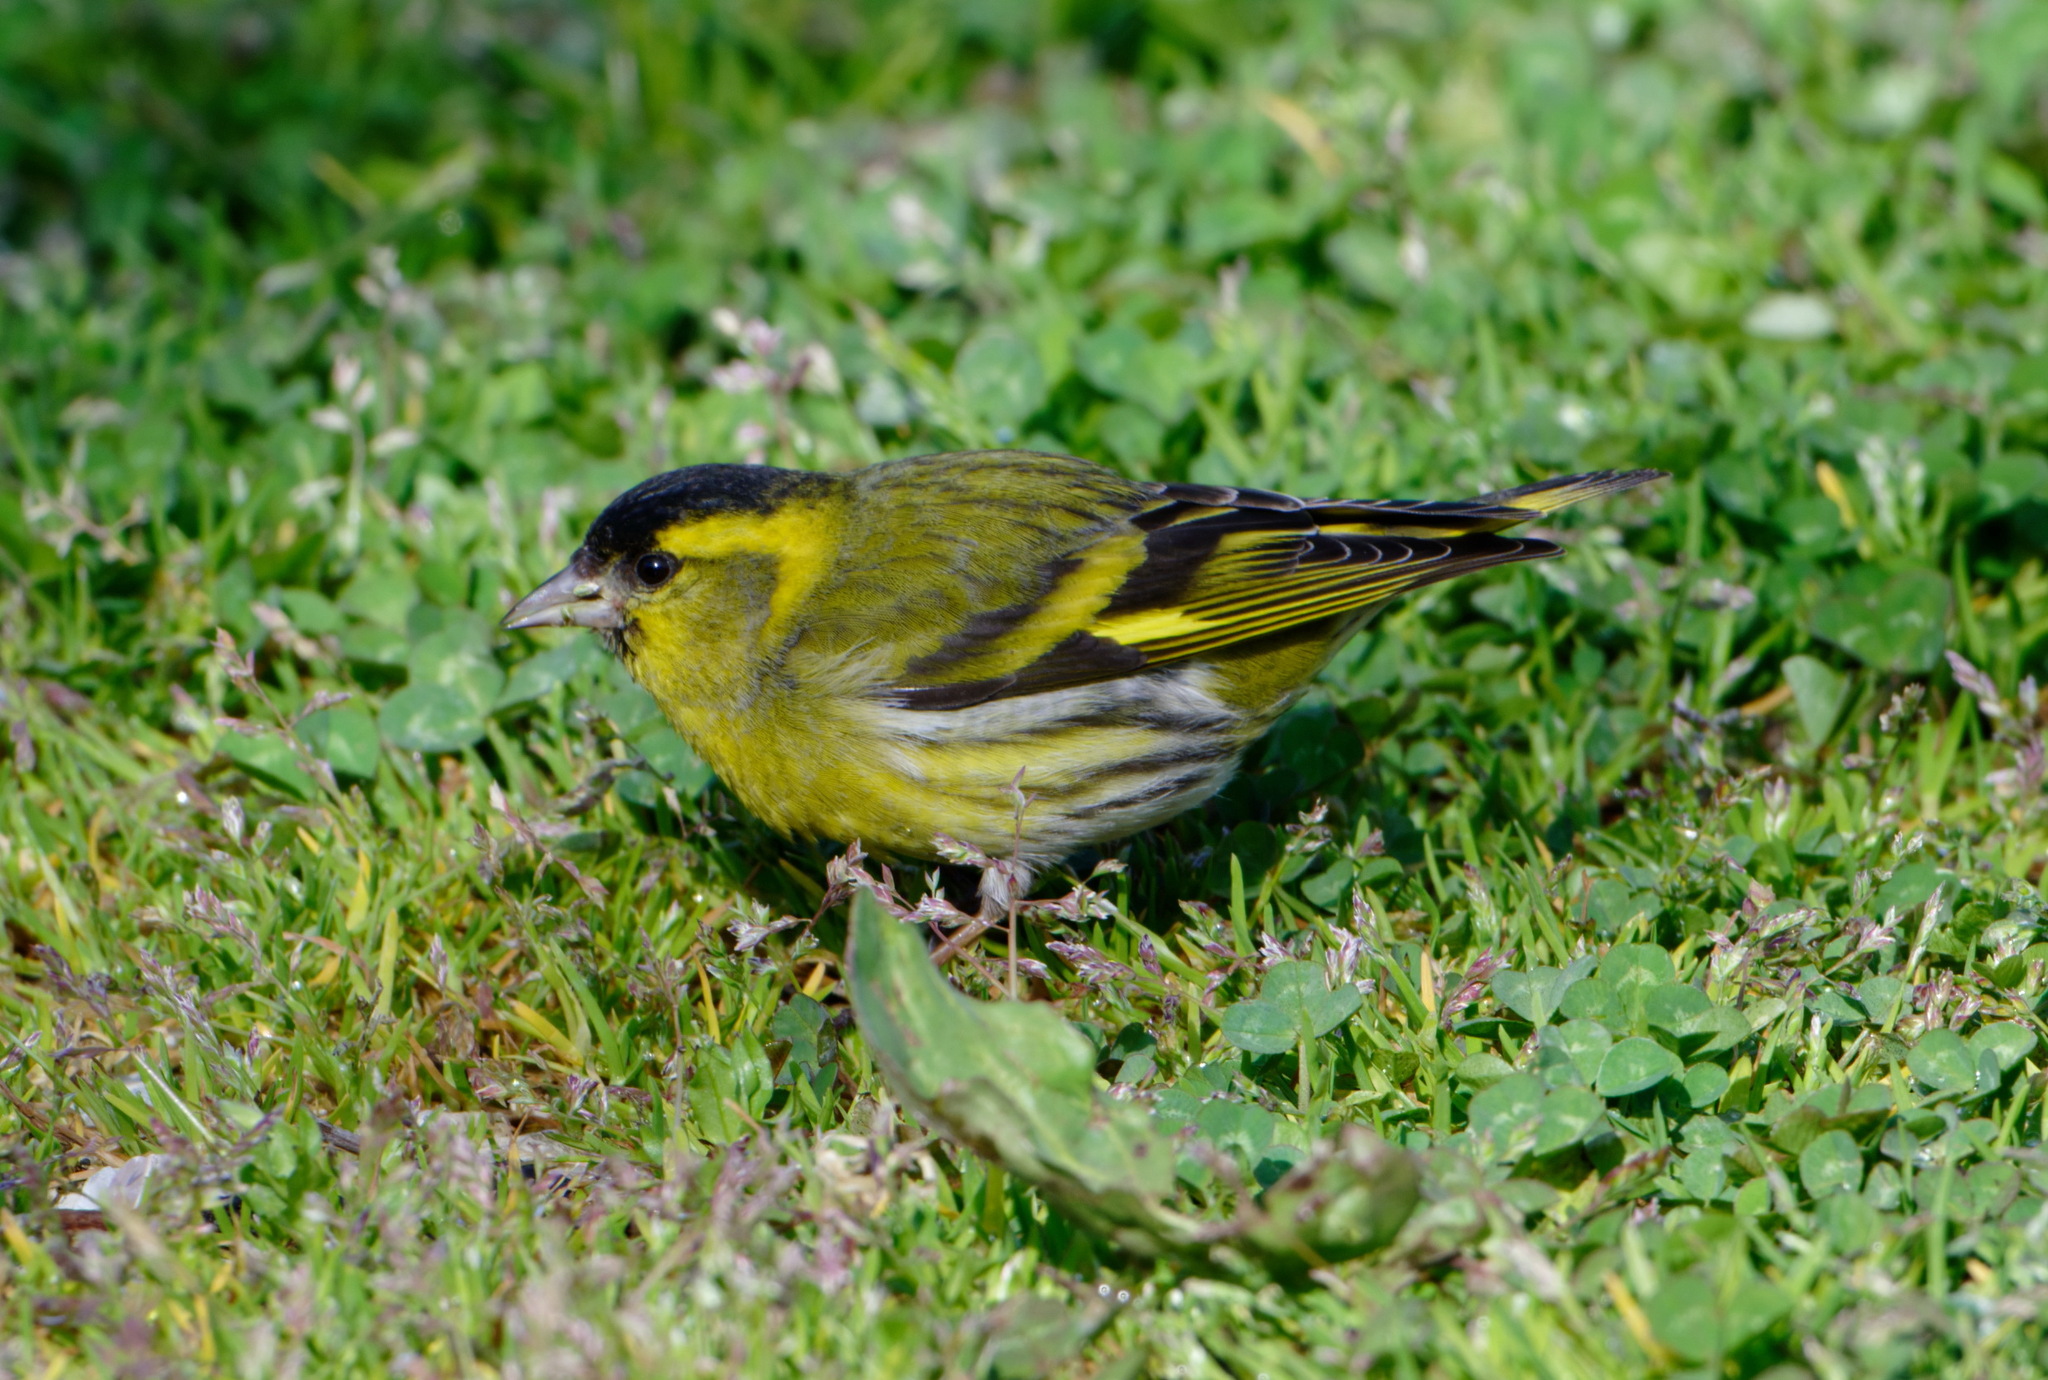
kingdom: Animalia
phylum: Chordata
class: Aves
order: Passeriformes
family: Fringillidae
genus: Spinus
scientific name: Spinus spinus
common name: Eurasian siskin
